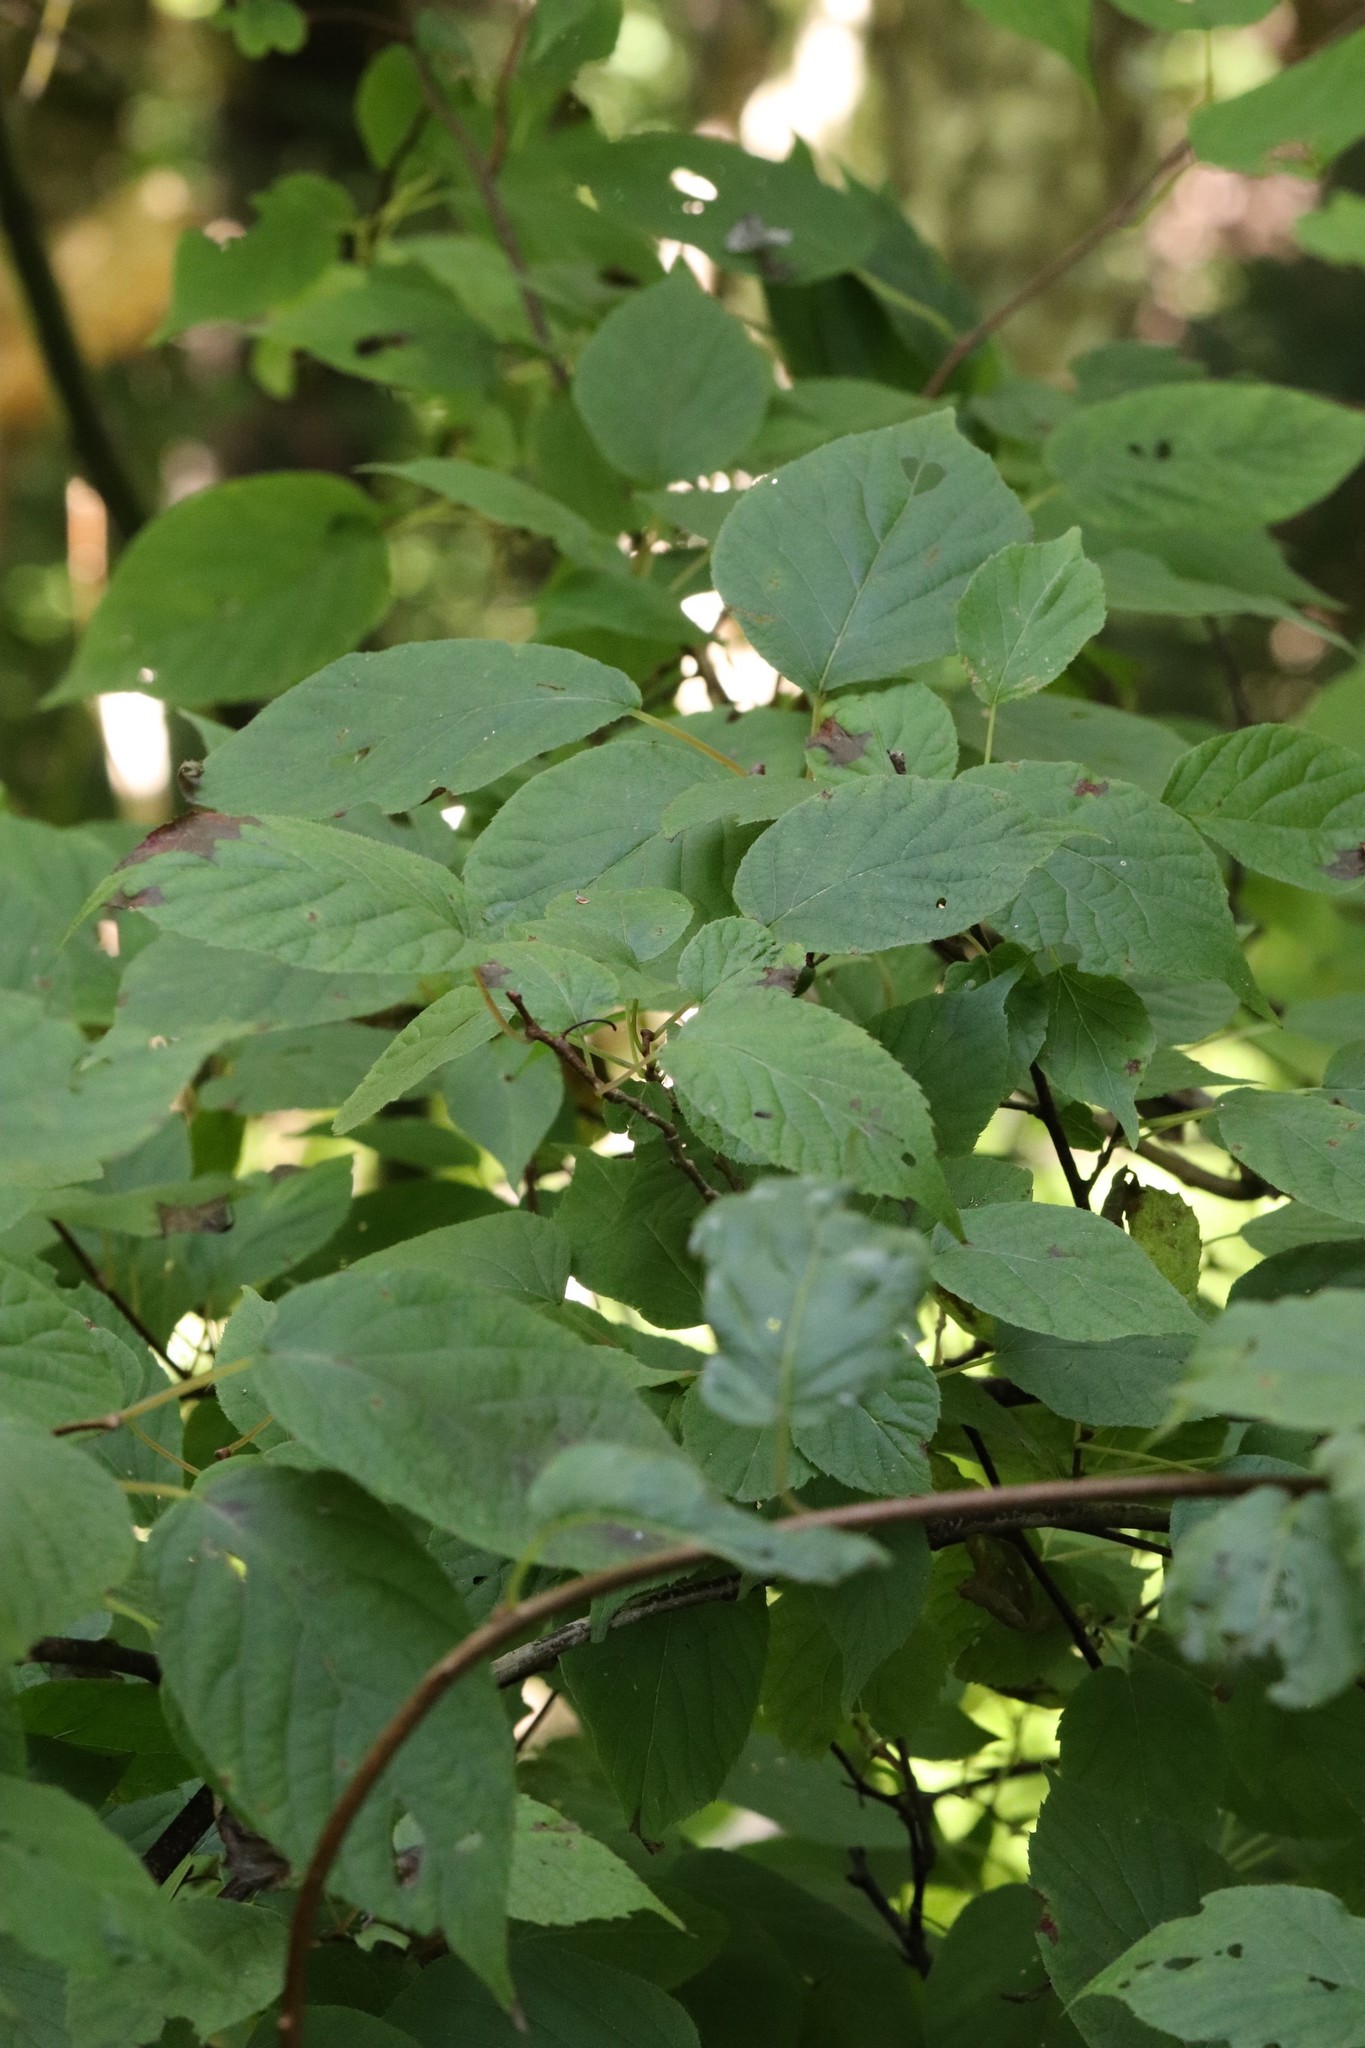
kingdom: Plantae
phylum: Tracheophyta
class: Magnoliopsida
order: Ericales
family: Actinidiaceae
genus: Actinidia
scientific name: Actinidia kolomikta
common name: Arctic beauty kiwi
